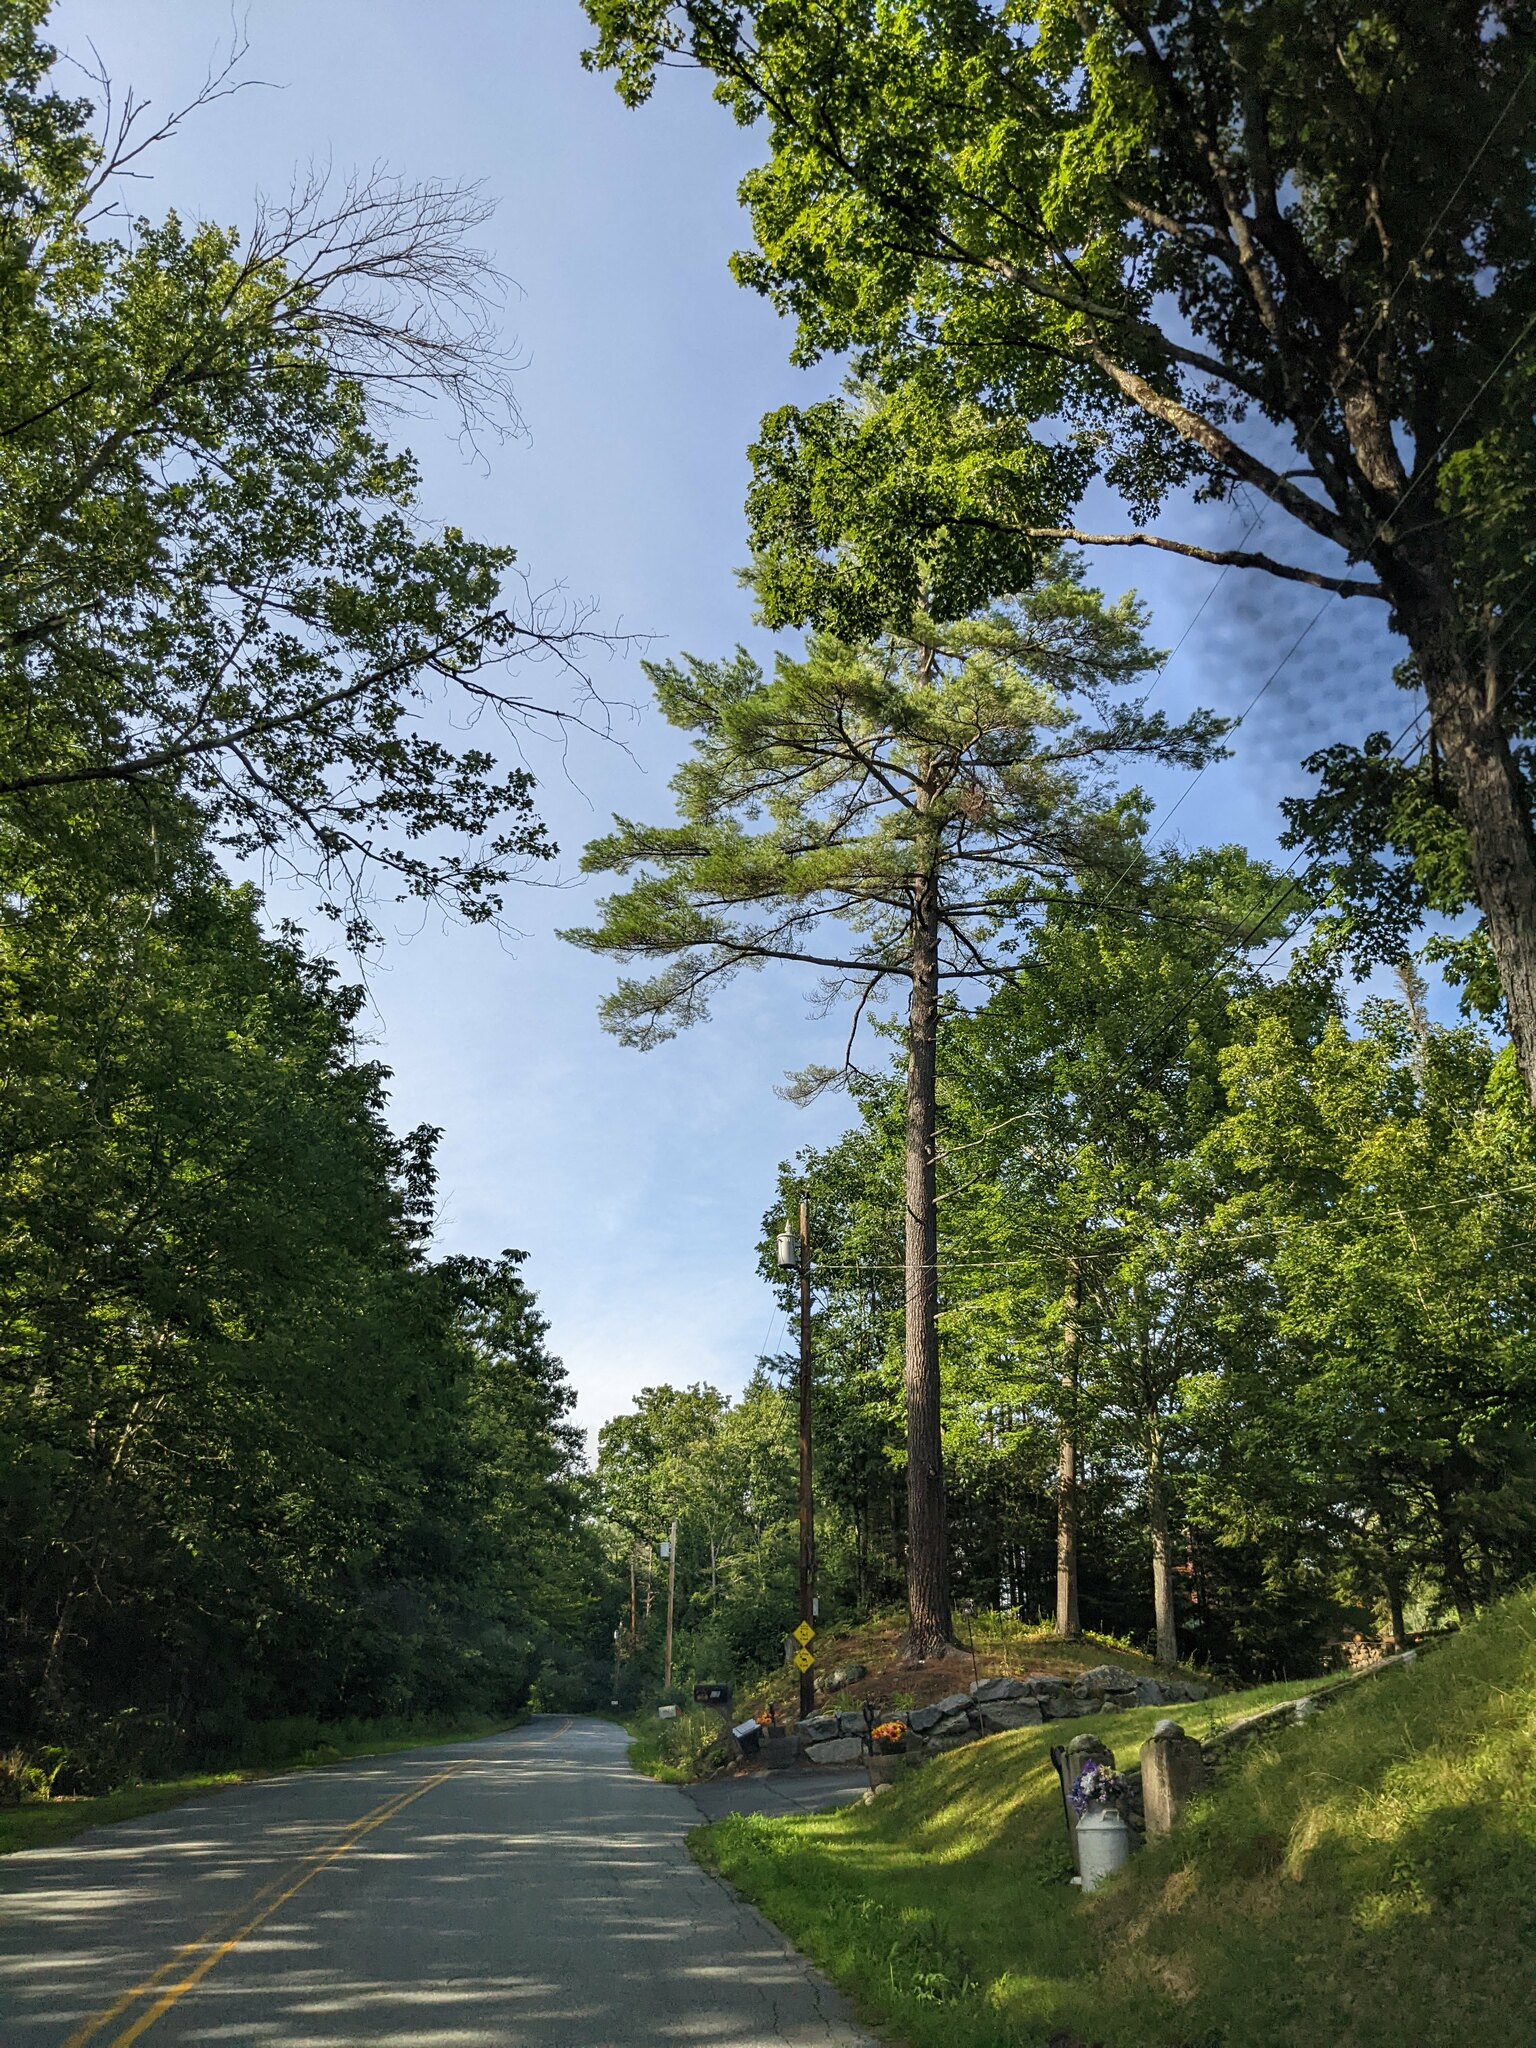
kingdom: Plantae
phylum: Tracheophyta
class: Pinopsida
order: Pinales
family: Pinaceae
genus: Pinus
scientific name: Pinus strobus
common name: Weymouth pine
